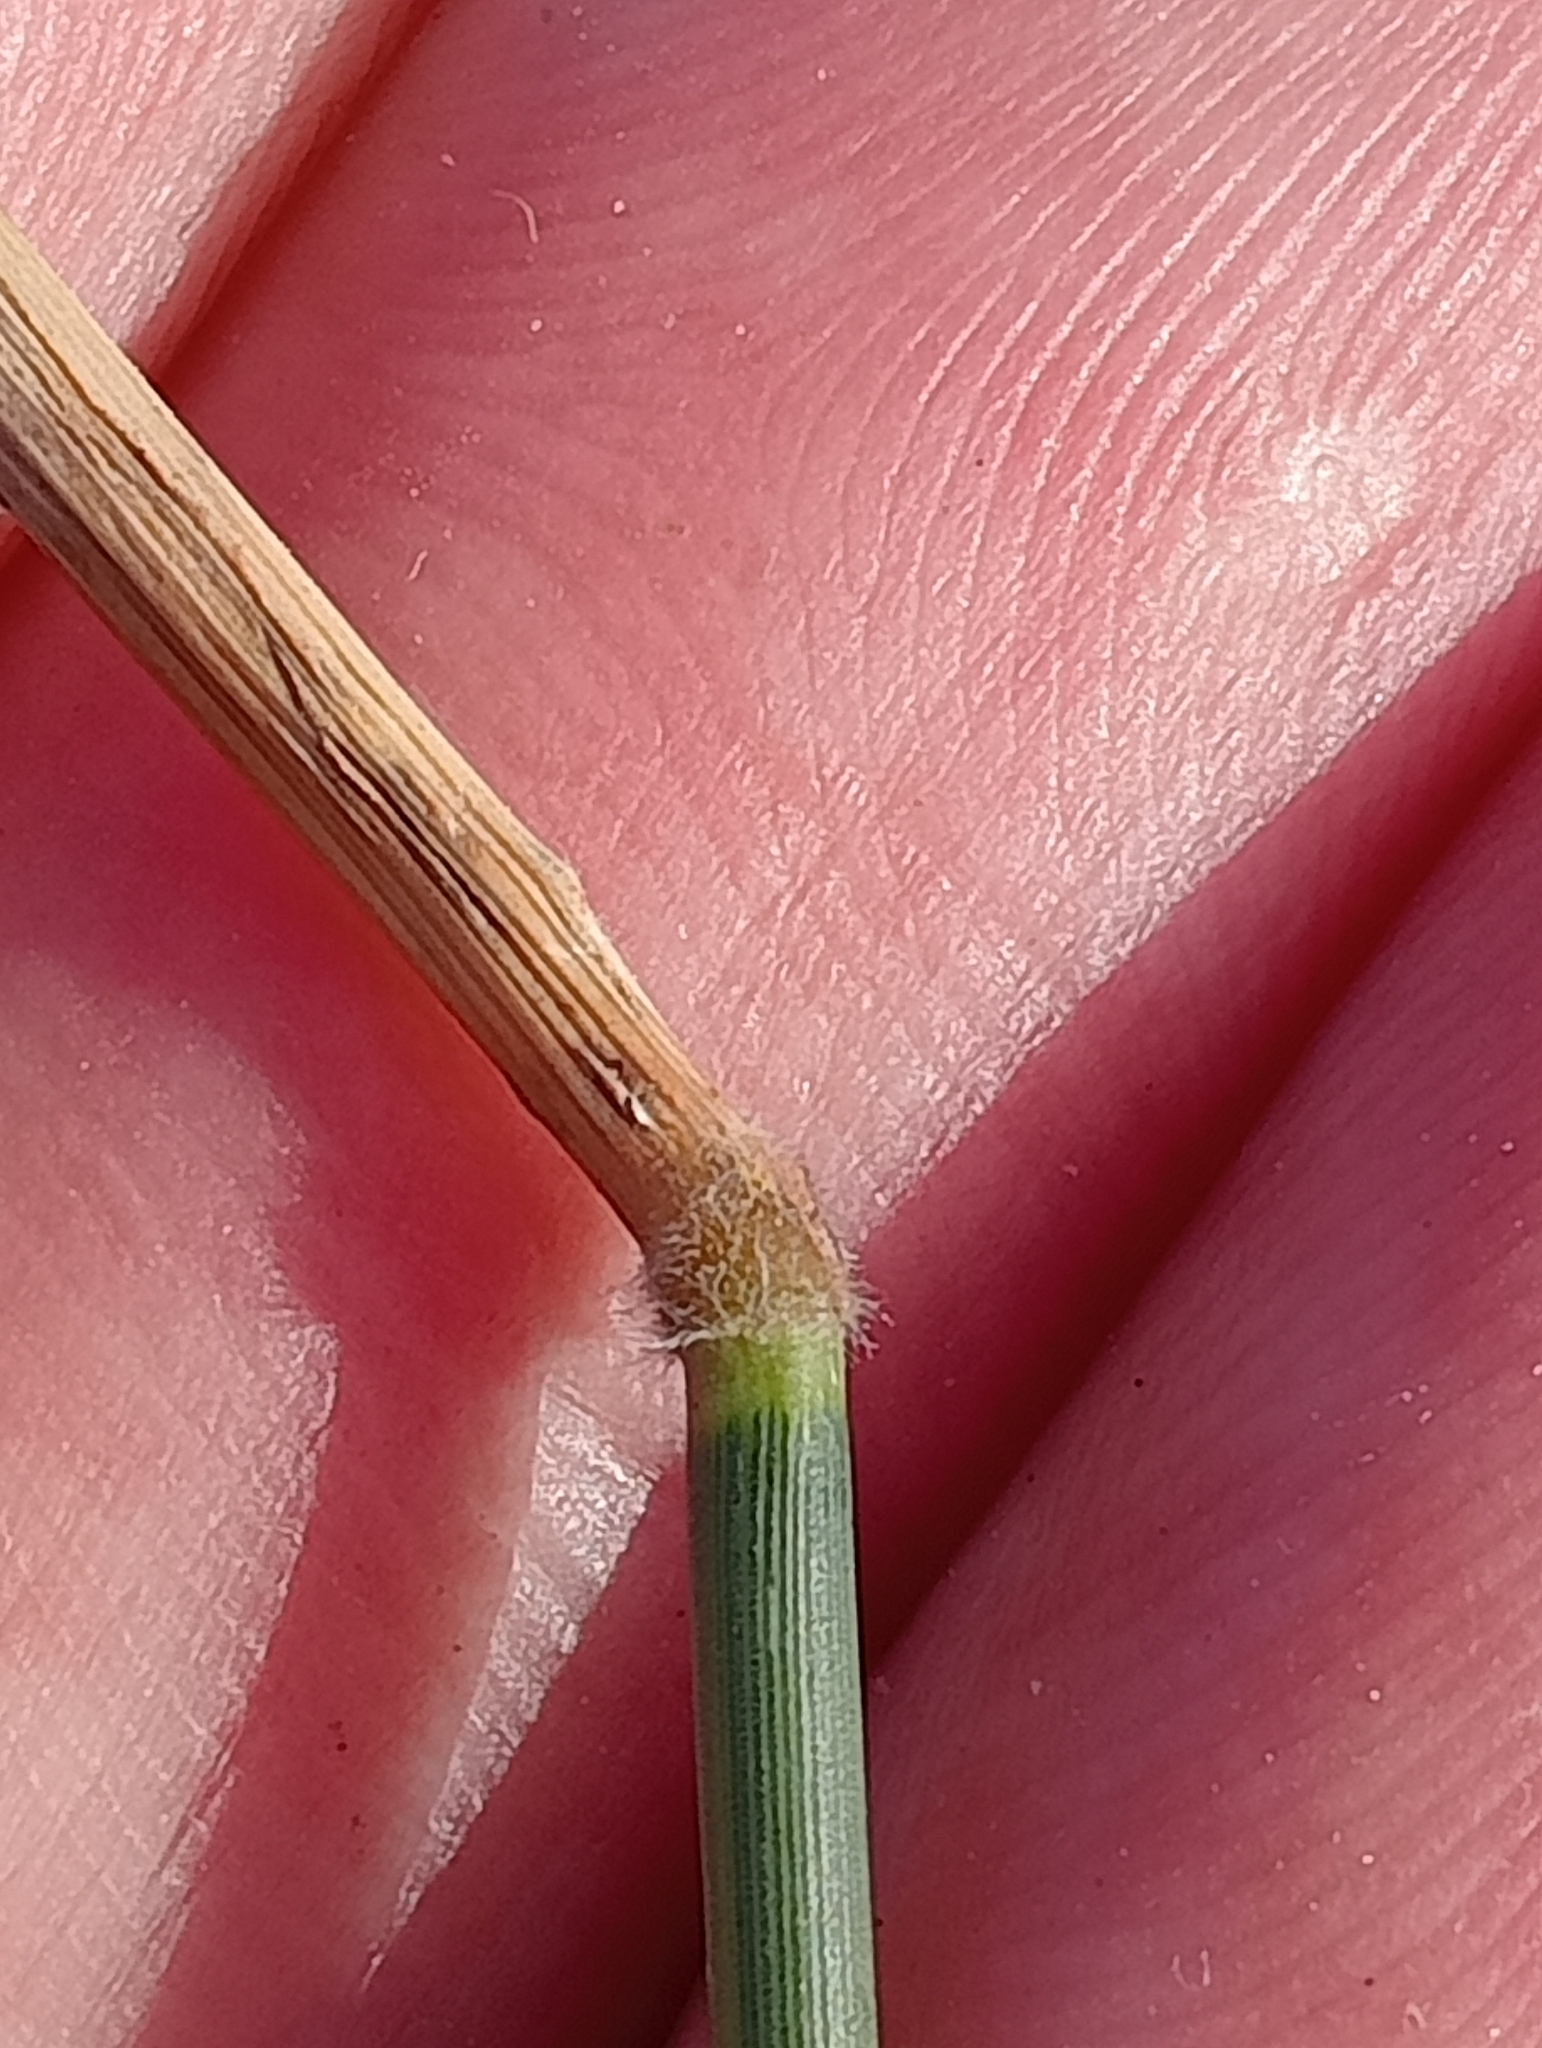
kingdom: Plantae
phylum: Tracheophyta
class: Liliopsida
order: Poales
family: Poaceae
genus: Holcus
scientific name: Holcus mollis
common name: Creeping velvetgrass
